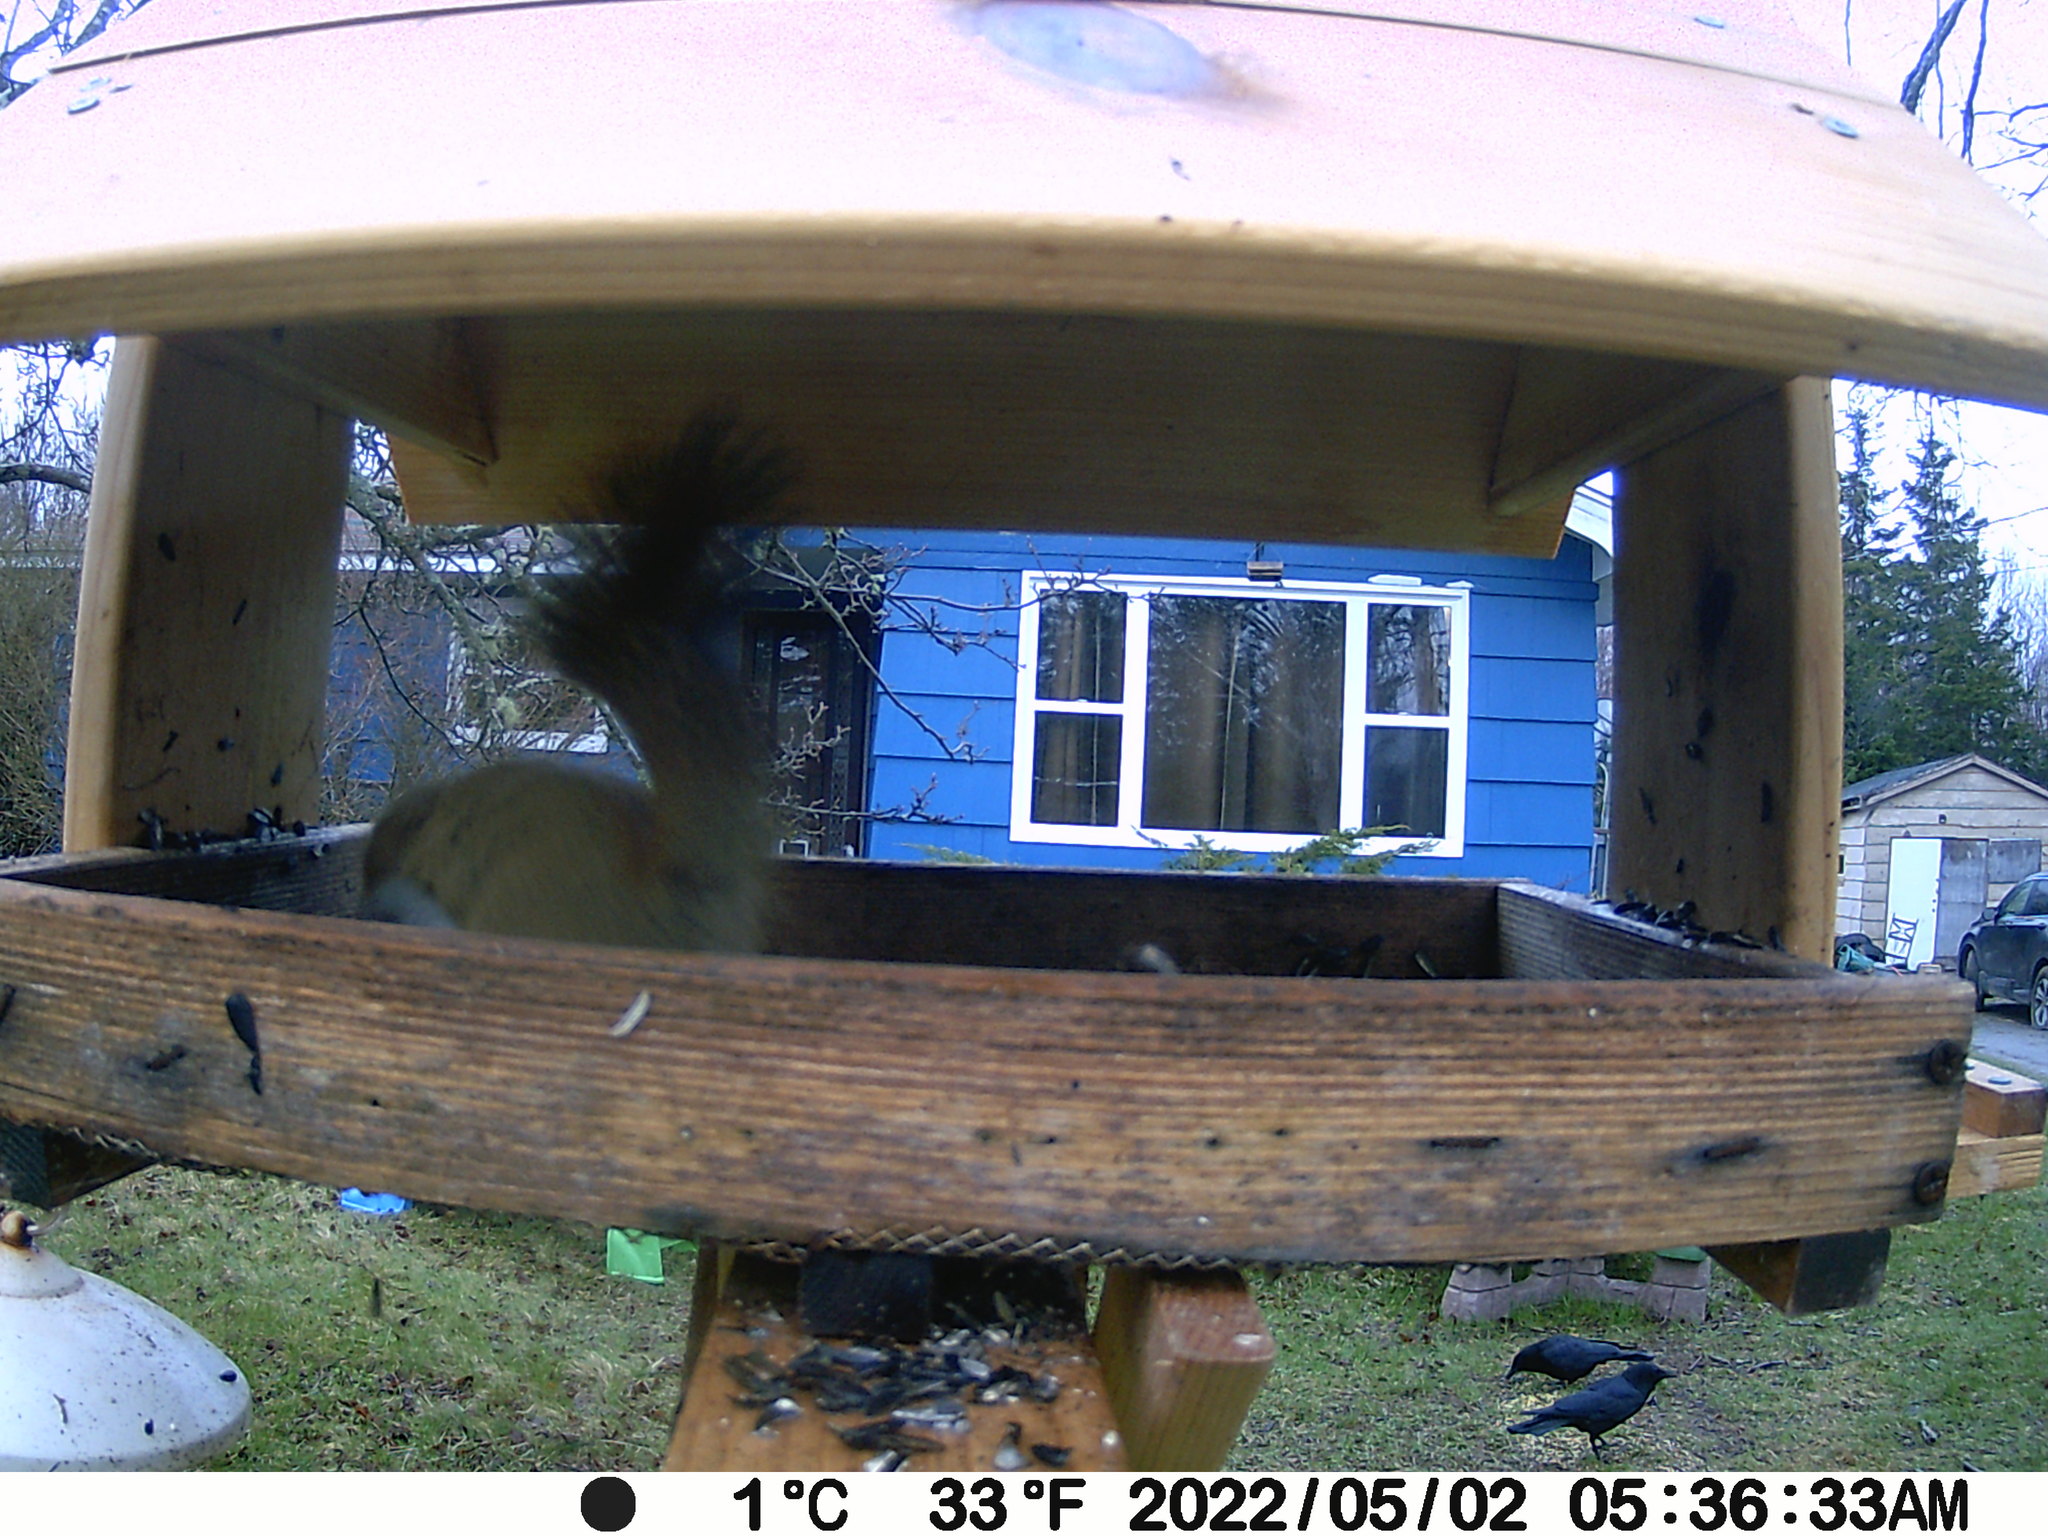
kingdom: Animalia
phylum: Chordata
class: Aves
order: Passeriformes
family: Corvidae
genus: Corvus
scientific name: Corvus brachyrhynchos
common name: American crow
